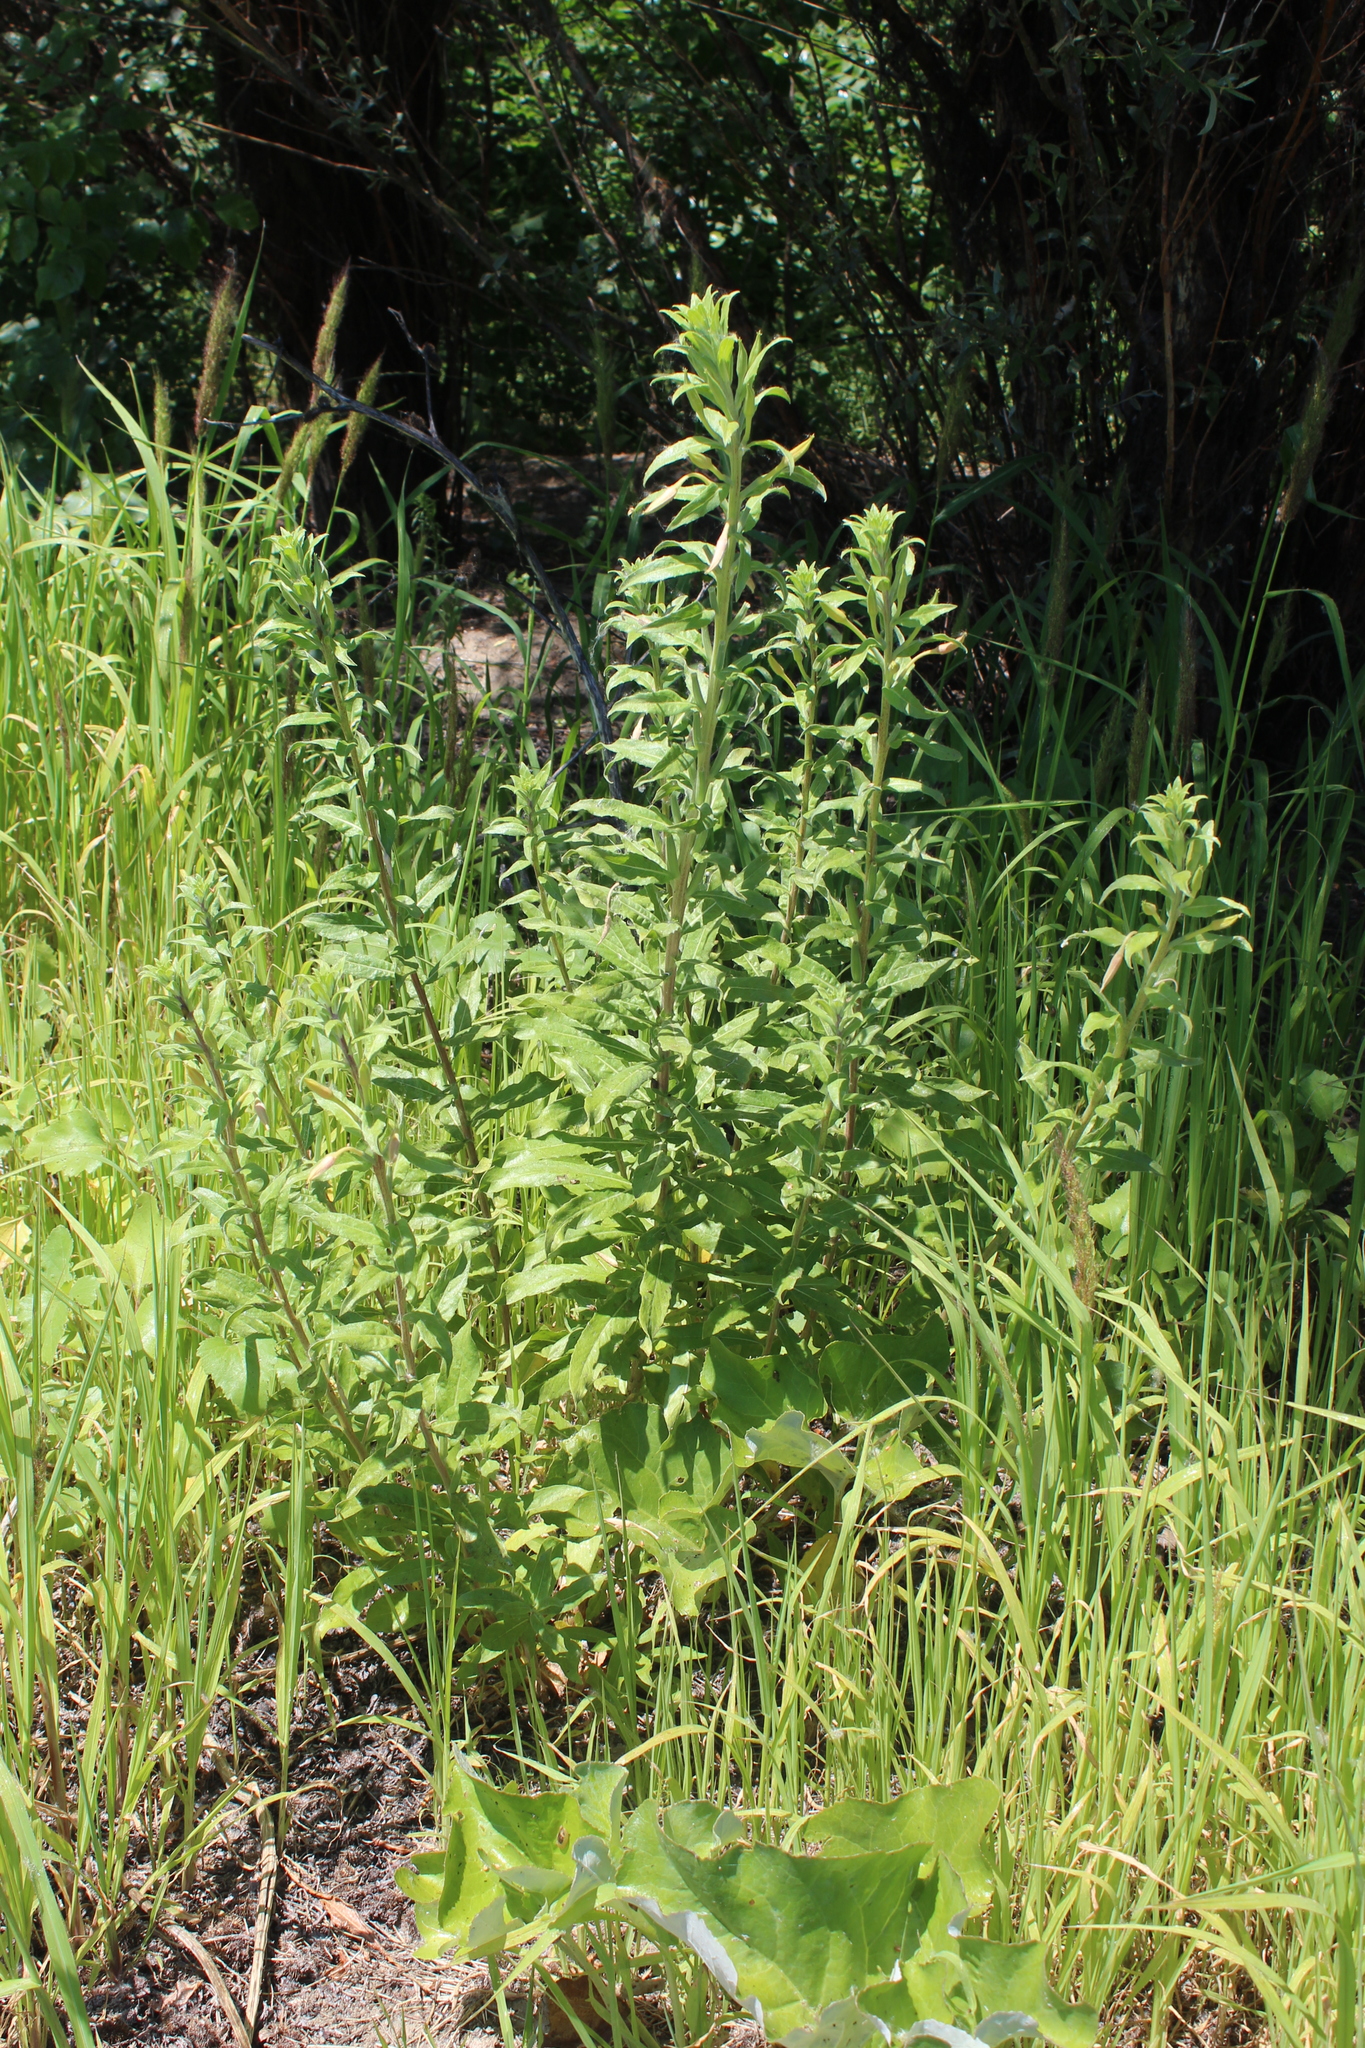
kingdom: Plantae
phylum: Tracheophyta
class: Magnoliopsida
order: Myrtales
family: Onagraceae
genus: Oenothera
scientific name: Oenothera villosa
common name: Hairy evening-primrose
